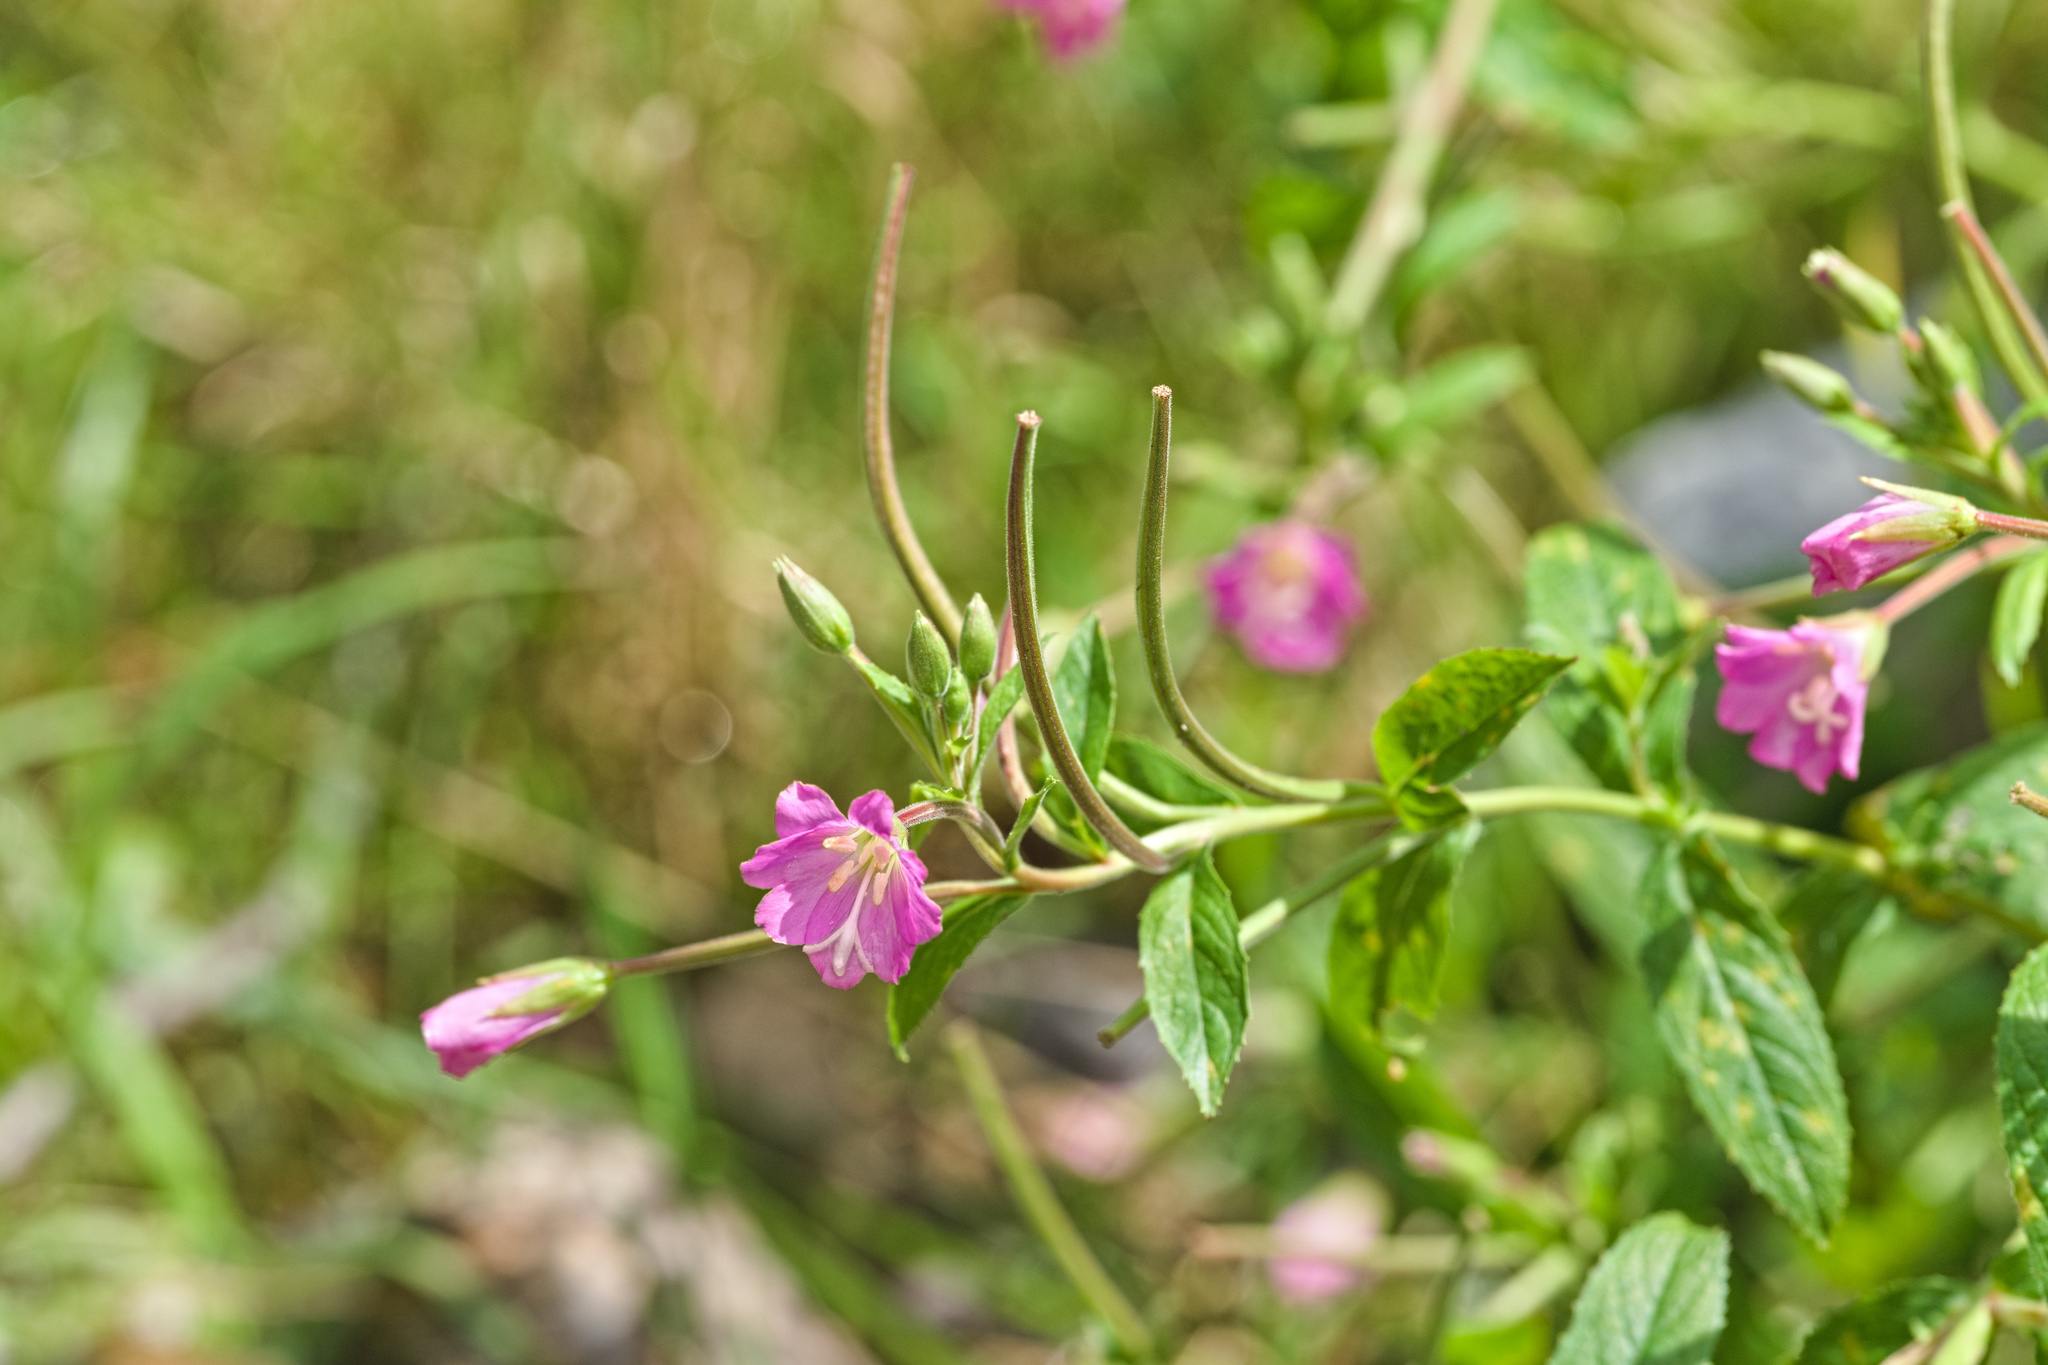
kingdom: Plantae
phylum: Tracheophyta
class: Magnoliopsida
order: Myrtales
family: Onagraceae
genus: Epilobium
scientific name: Epilobium hirsutum
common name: Great willowherb
